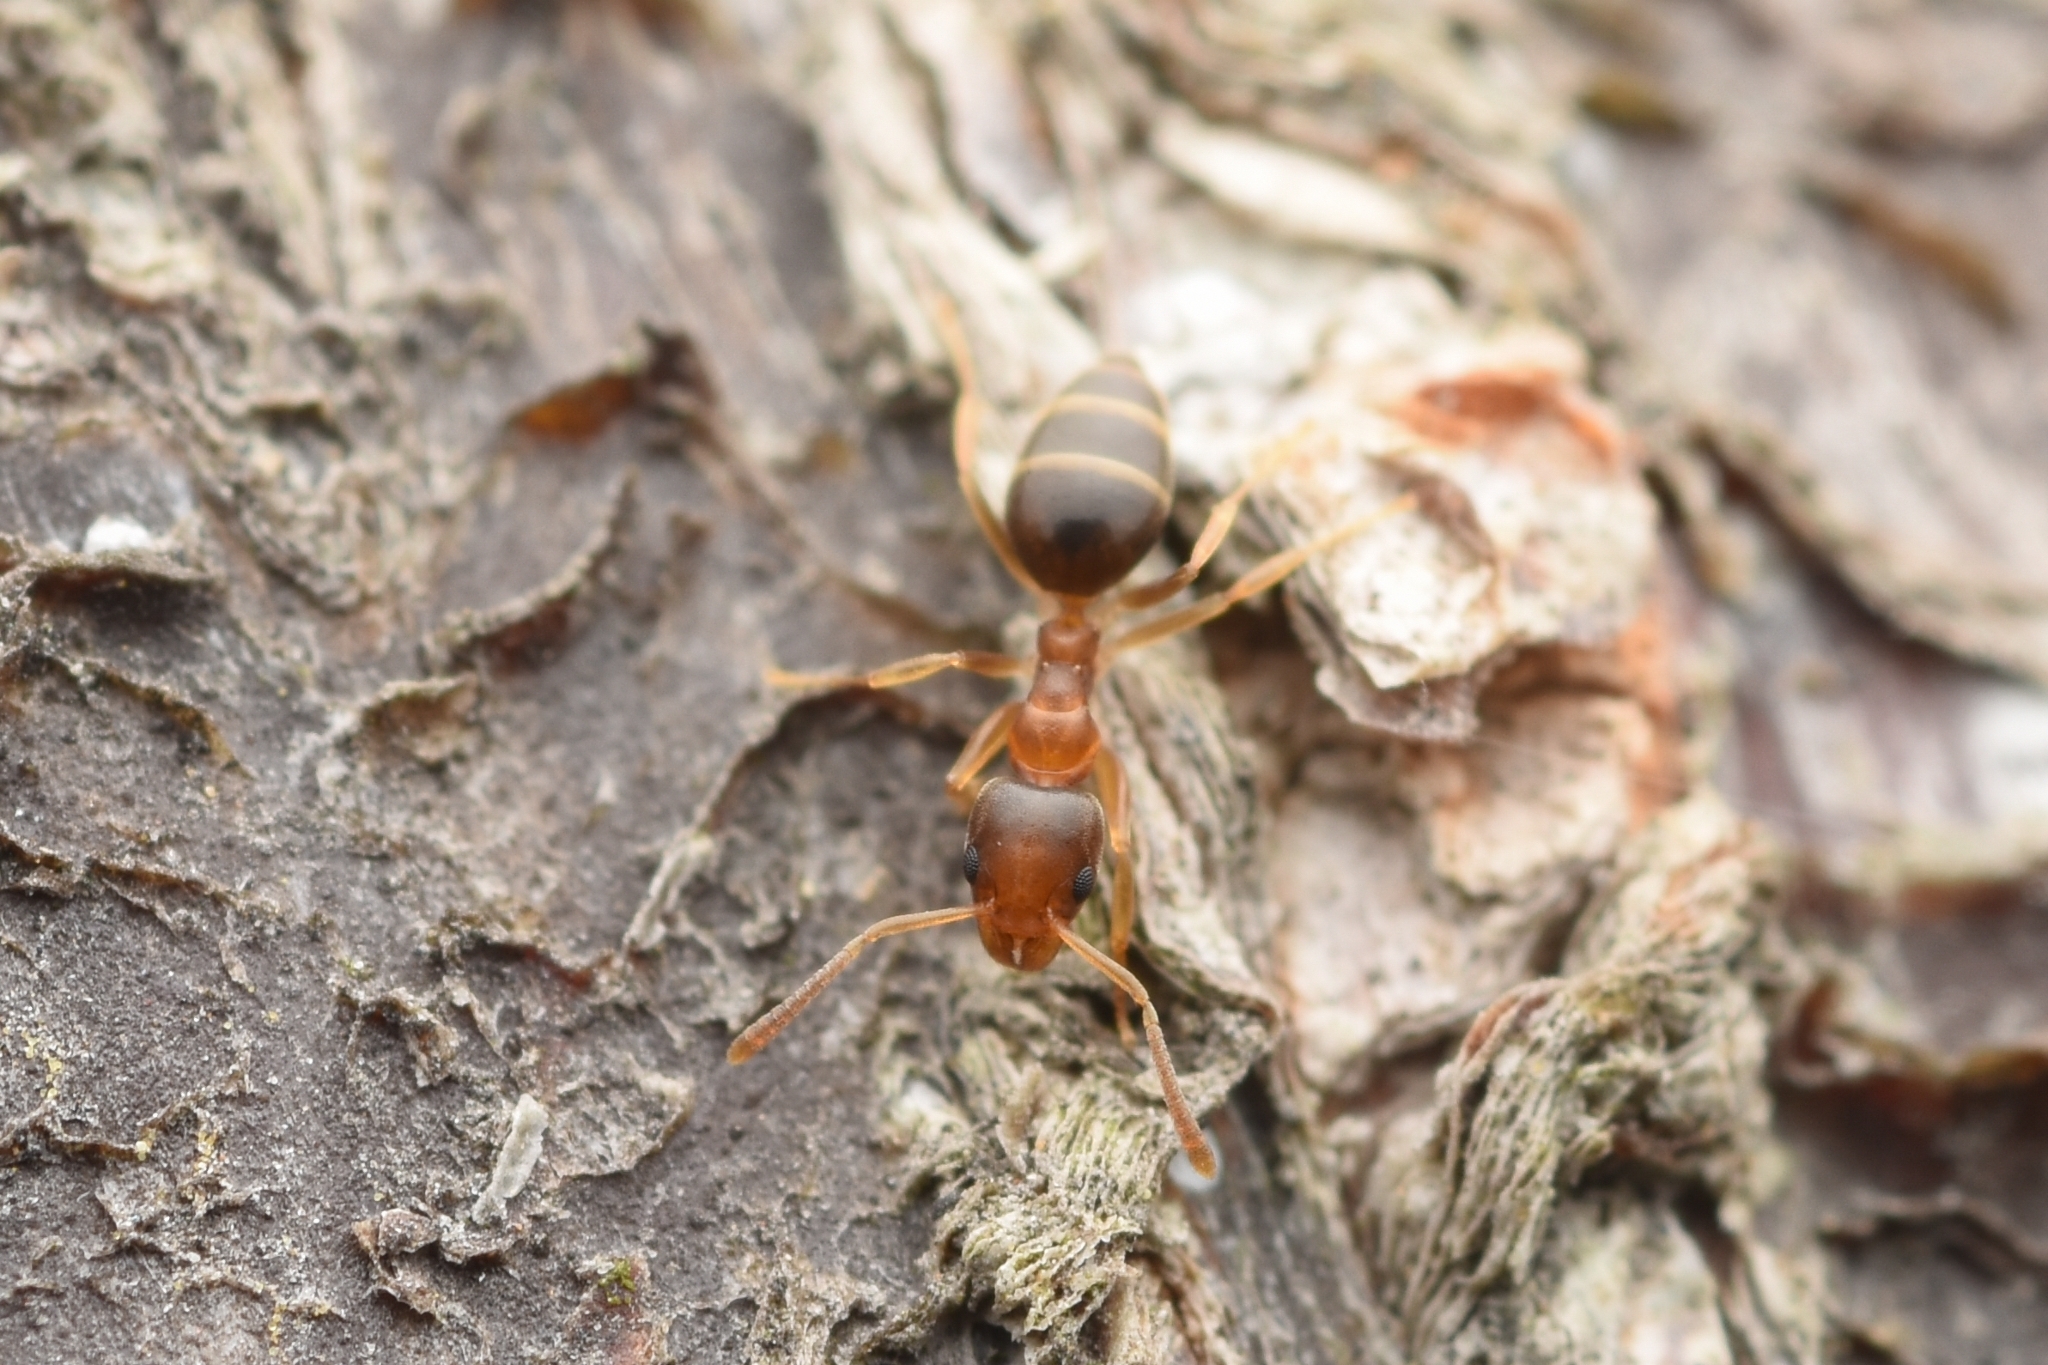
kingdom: Animalia
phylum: Arthropoda
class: Insecta
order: Hymenoptera
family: Formicidae
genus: Technomyrmex
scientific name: Technomyrmex gibbosus
